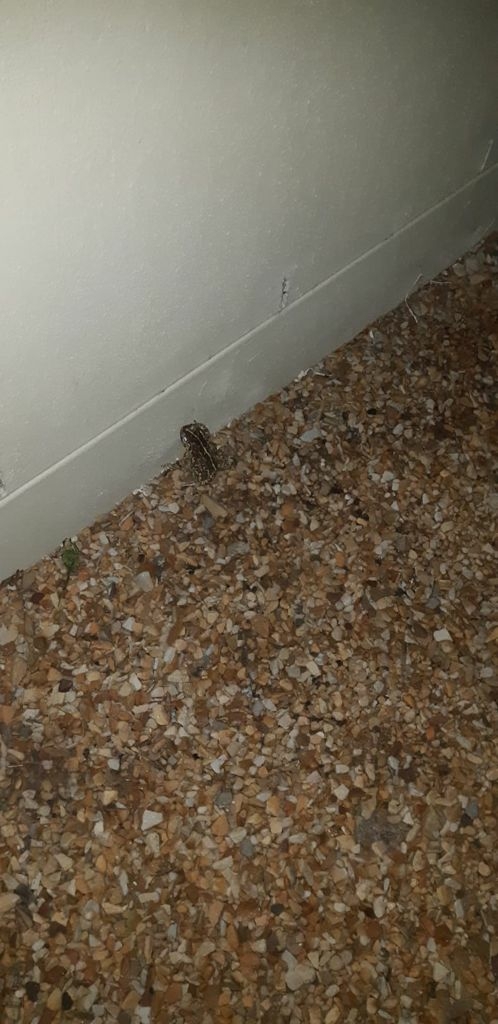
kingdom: Animalia
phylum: Chordata
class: Amphibia
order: Anura
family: Bufonidae
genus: Sclerophrys
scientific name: Sclerophrys pantherina
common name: Panther toad
